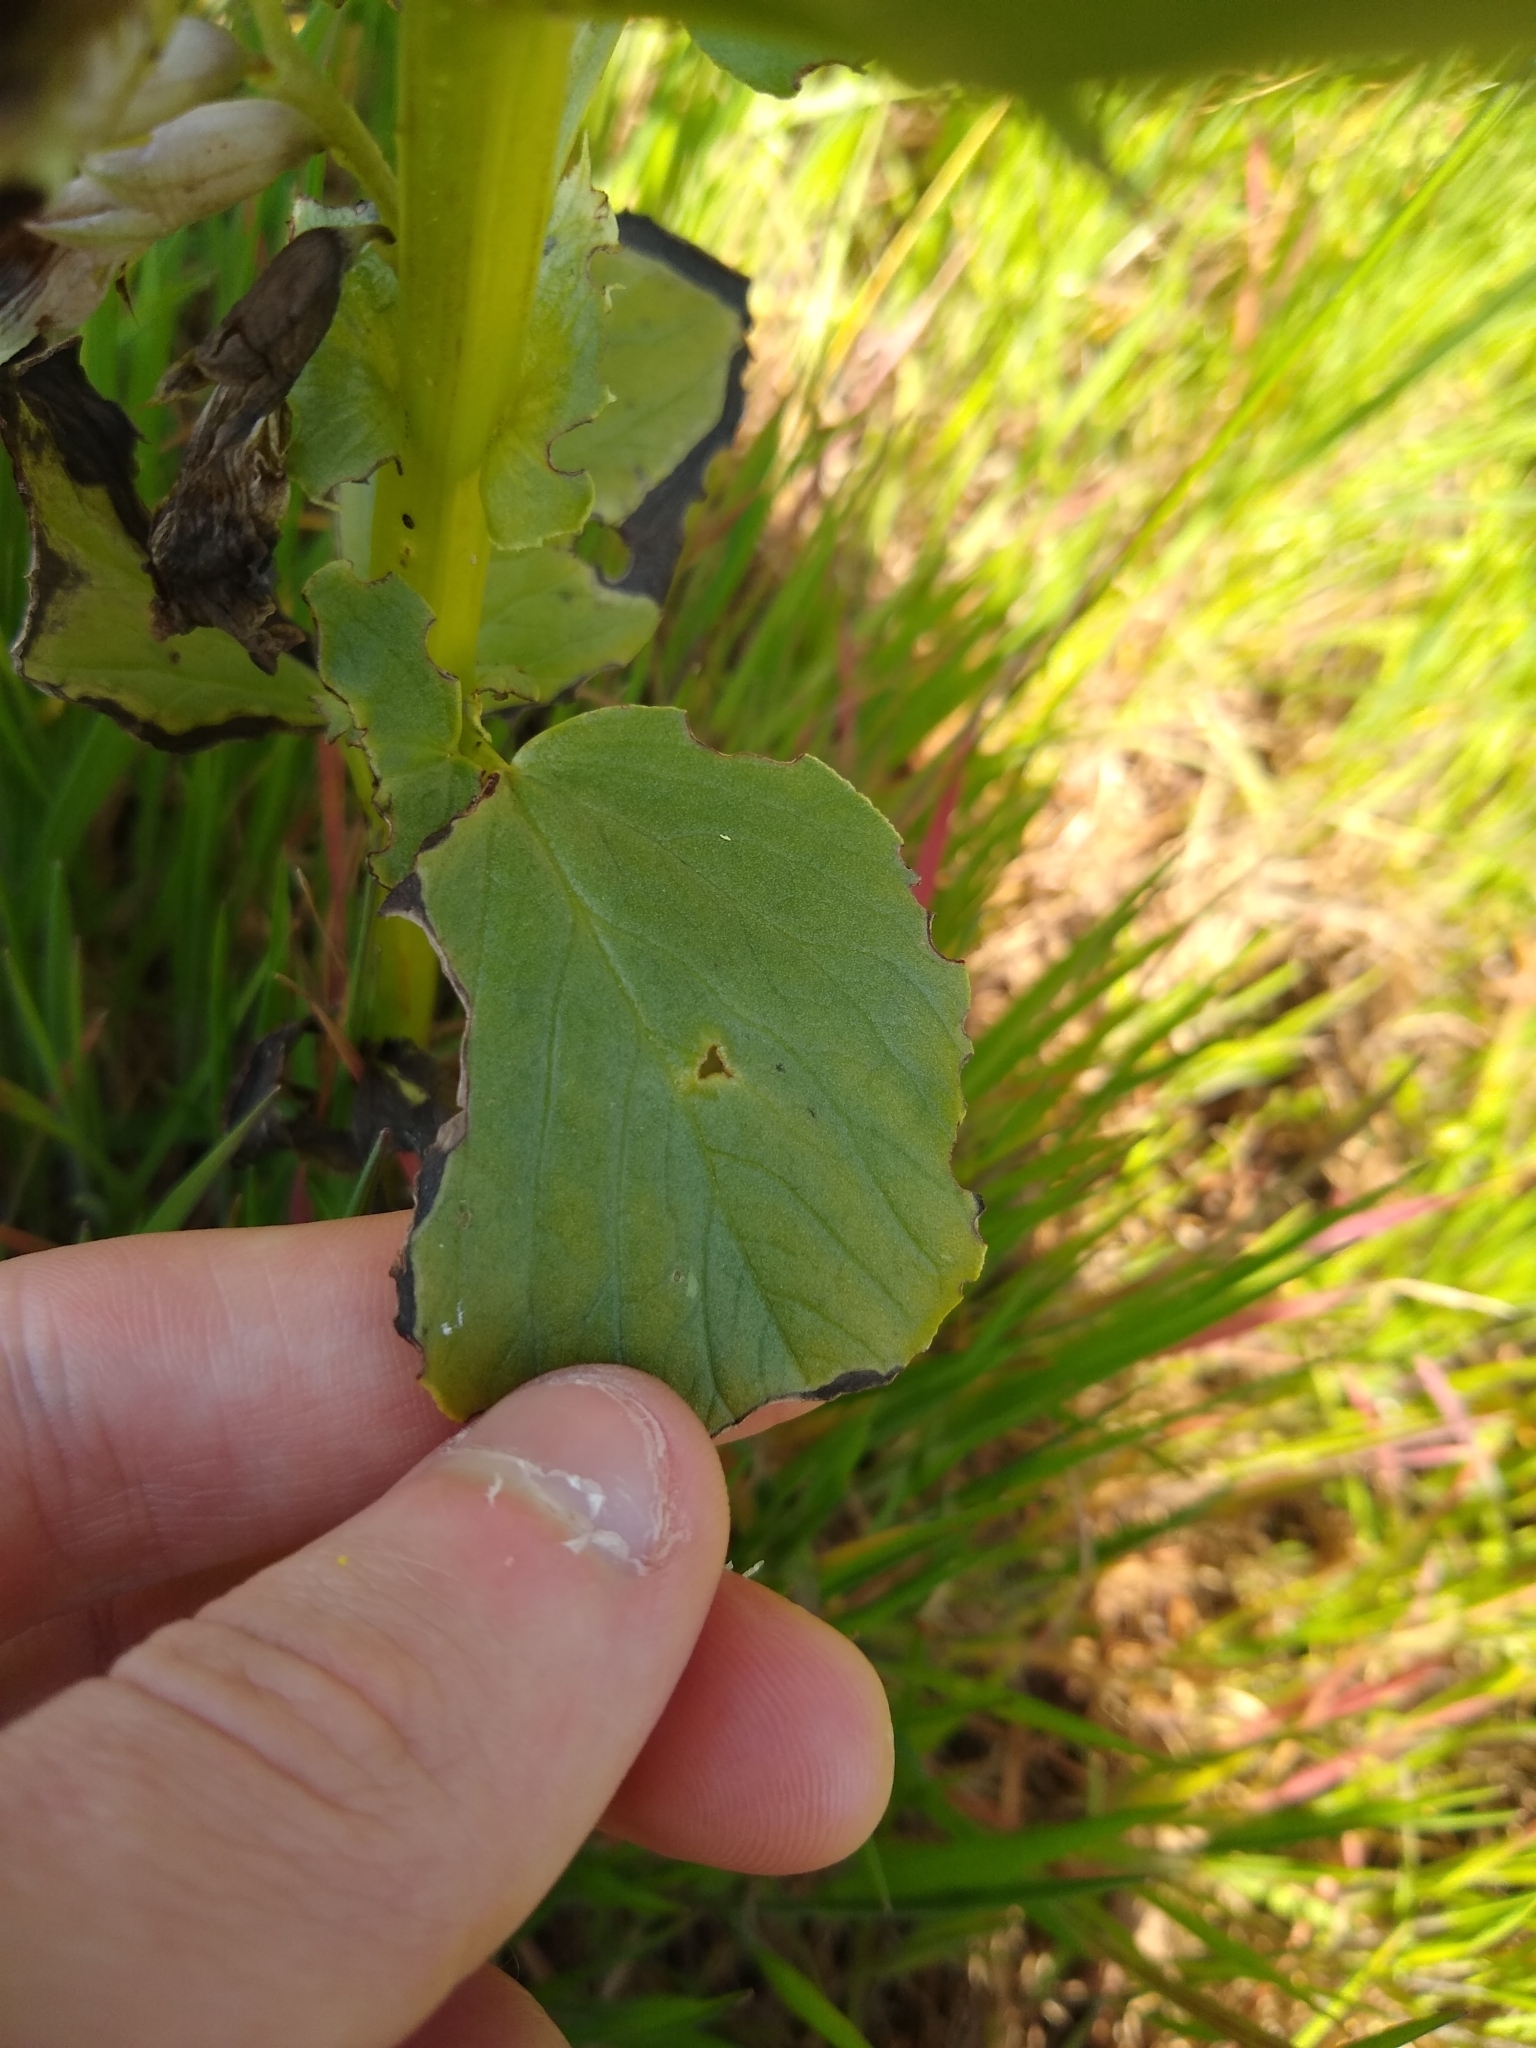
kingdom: Plantae
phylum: Tracheophyta
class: Magnoliopsida
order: Fabales
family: Fabaceae
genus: Vicia
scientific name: Vicia faba
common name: Broad bean
